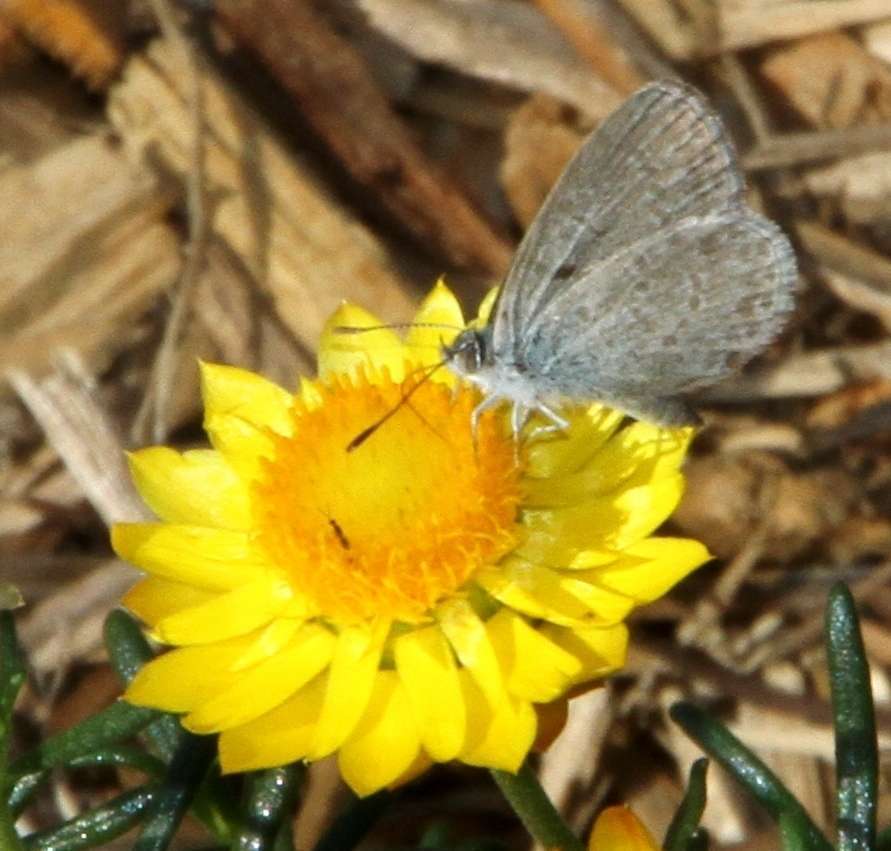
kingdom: Animalia
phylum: Arthropoda
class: Insecta
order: Lepidoptera
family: Lycaenidae
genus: Zizina
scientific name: Zizina labradus
